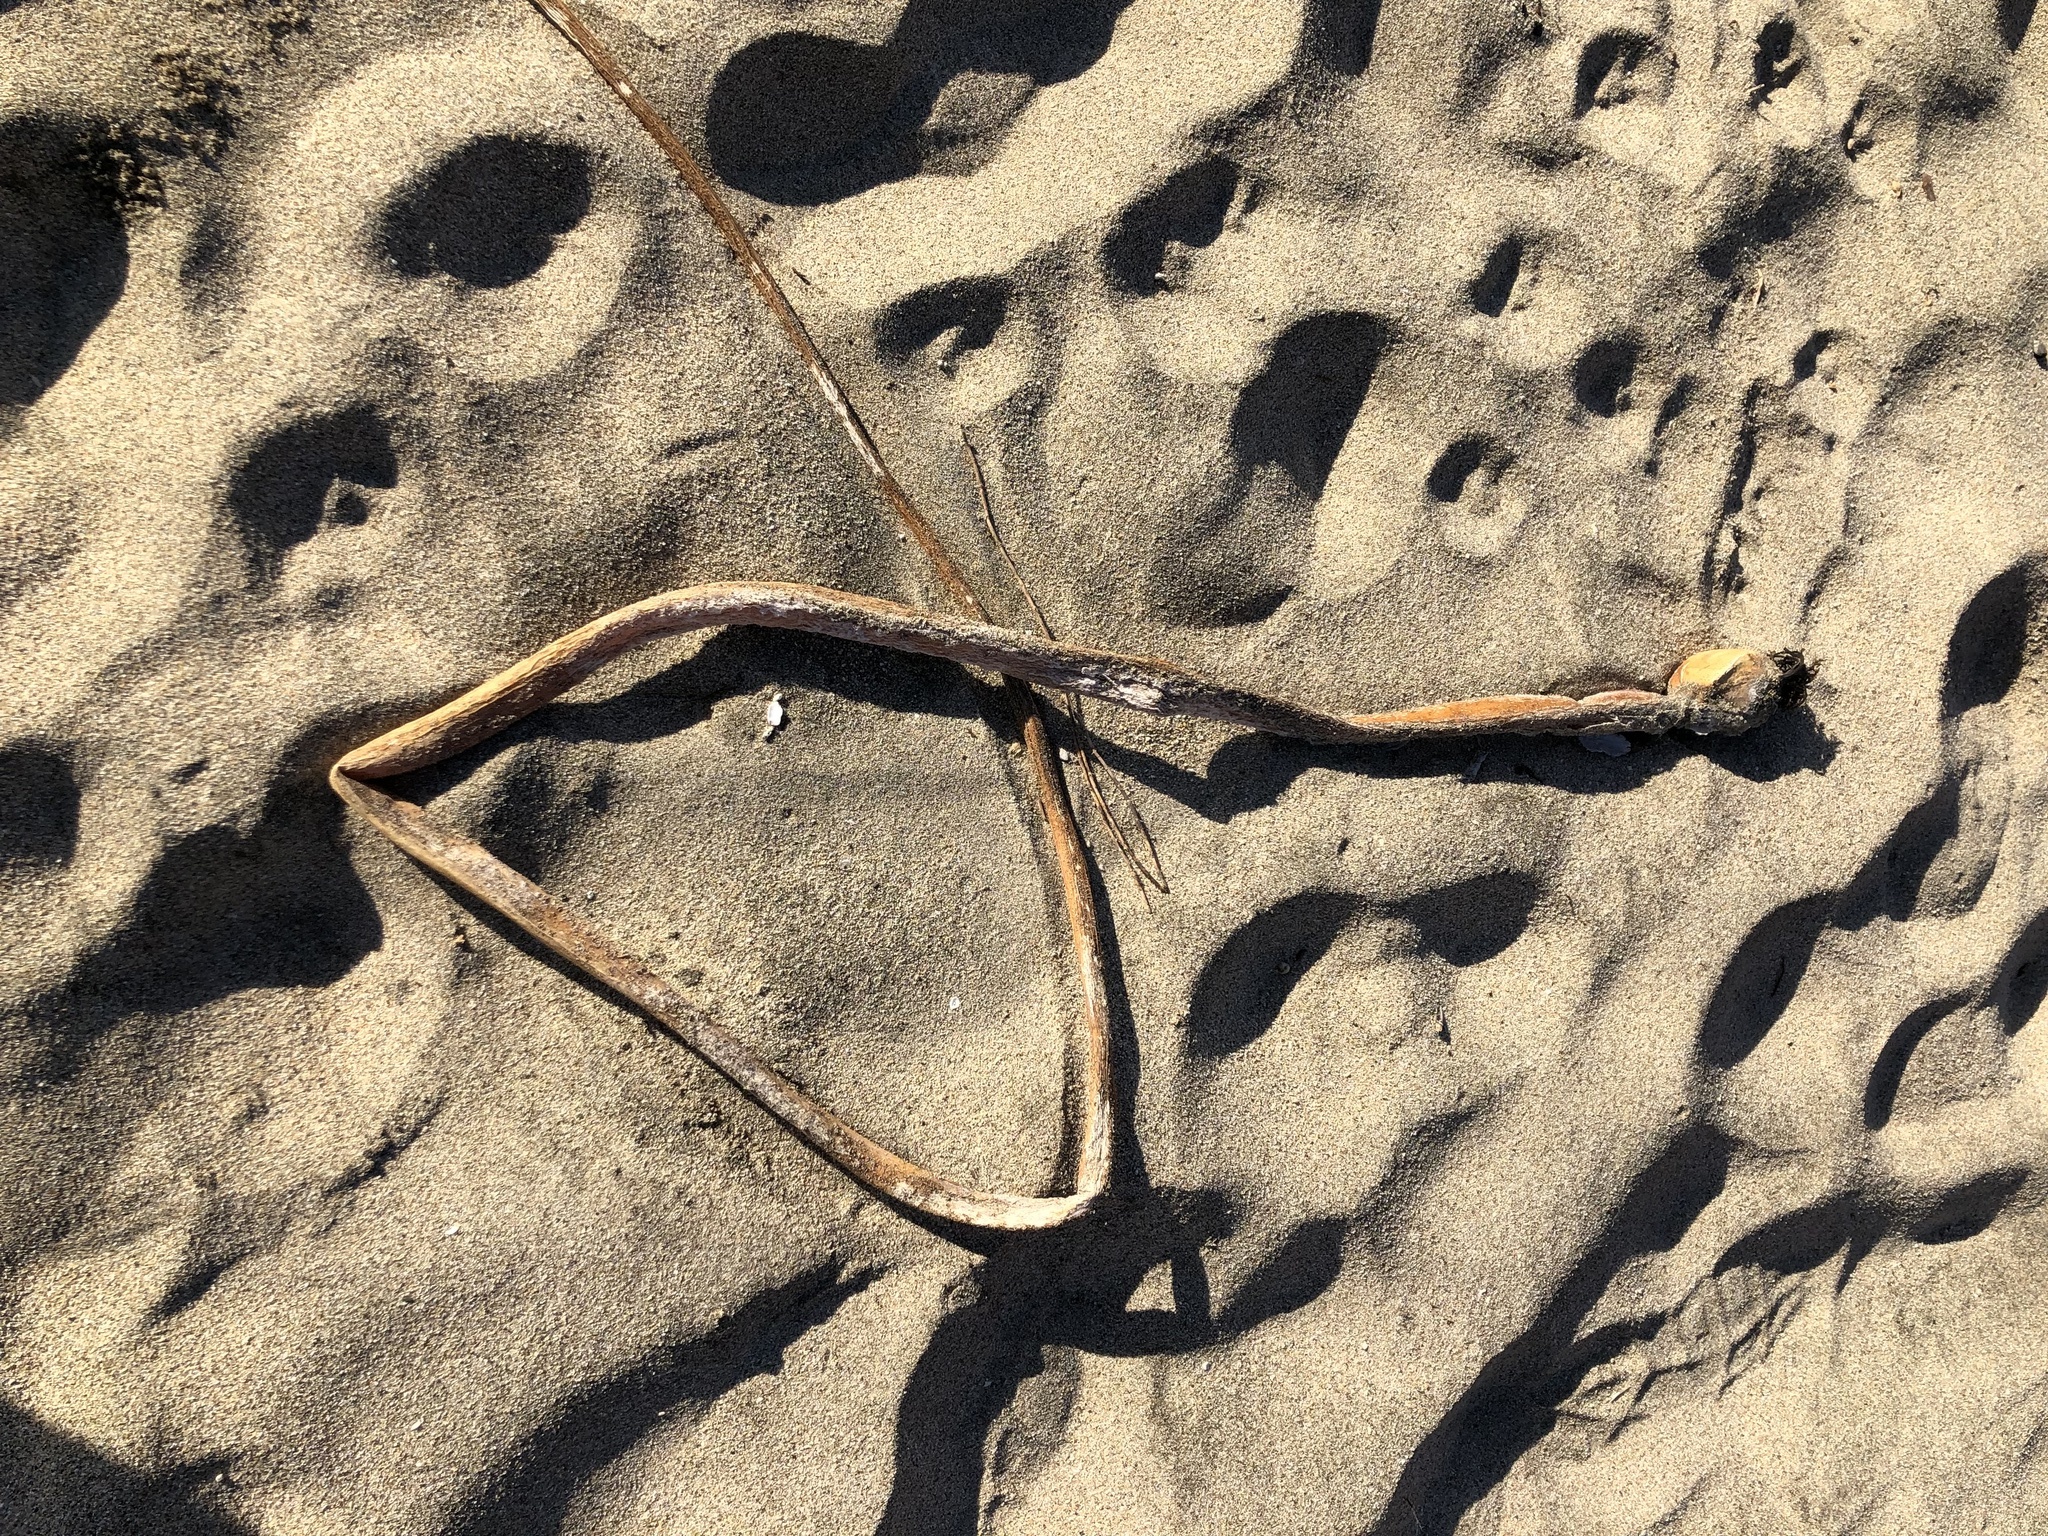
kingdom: Chromista
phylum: Ochrophyta
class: Phaeophyceae
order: Laminariales
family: Laminariaceae
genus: Nereocystis
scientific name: Nereocystis luetkeana
